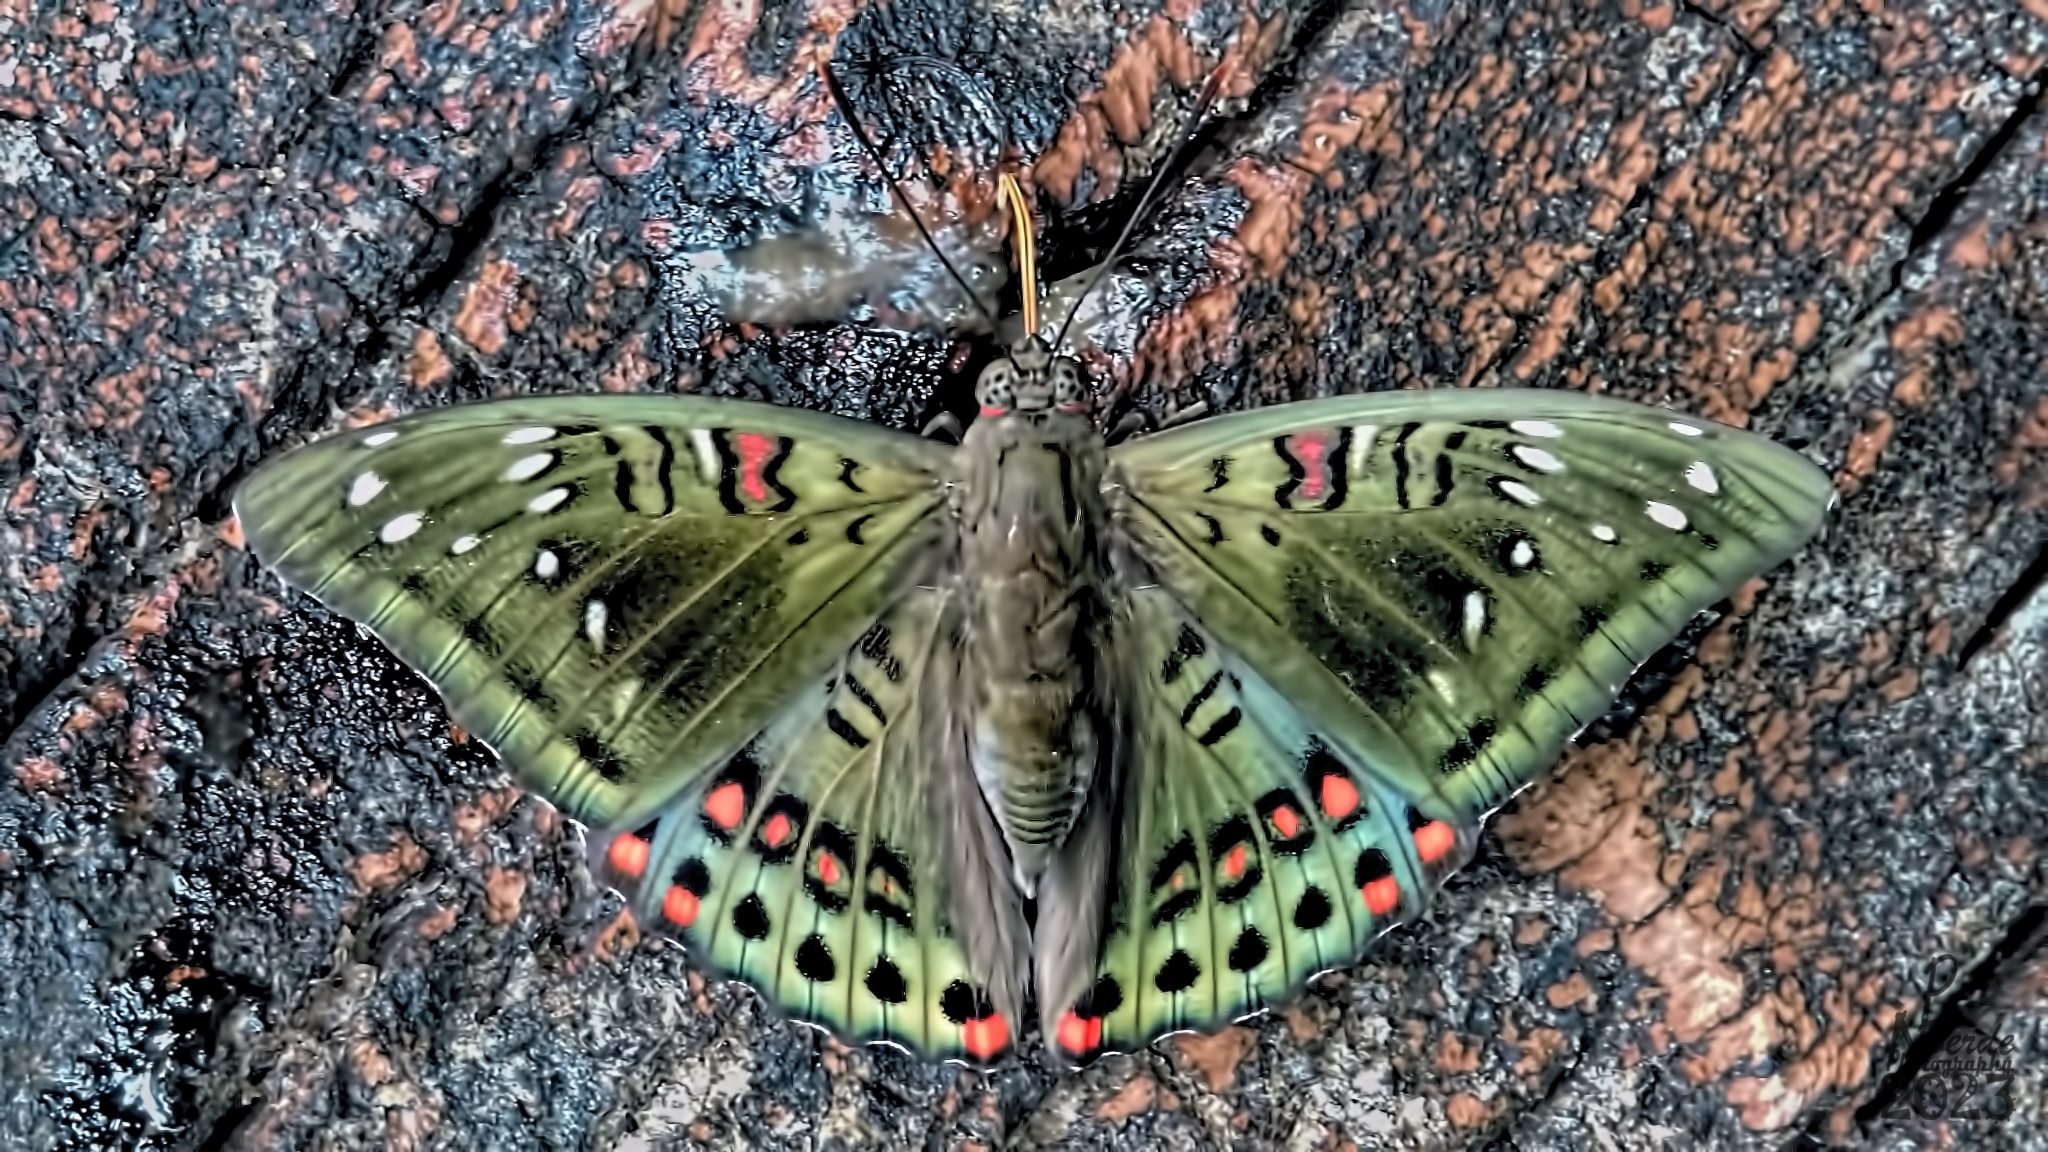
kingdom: Animalia
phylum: Arthropoda
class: Insecta
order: Lepidoptera
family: Nymphalidae
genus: Euthalia
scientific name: Euthalia lubentina
